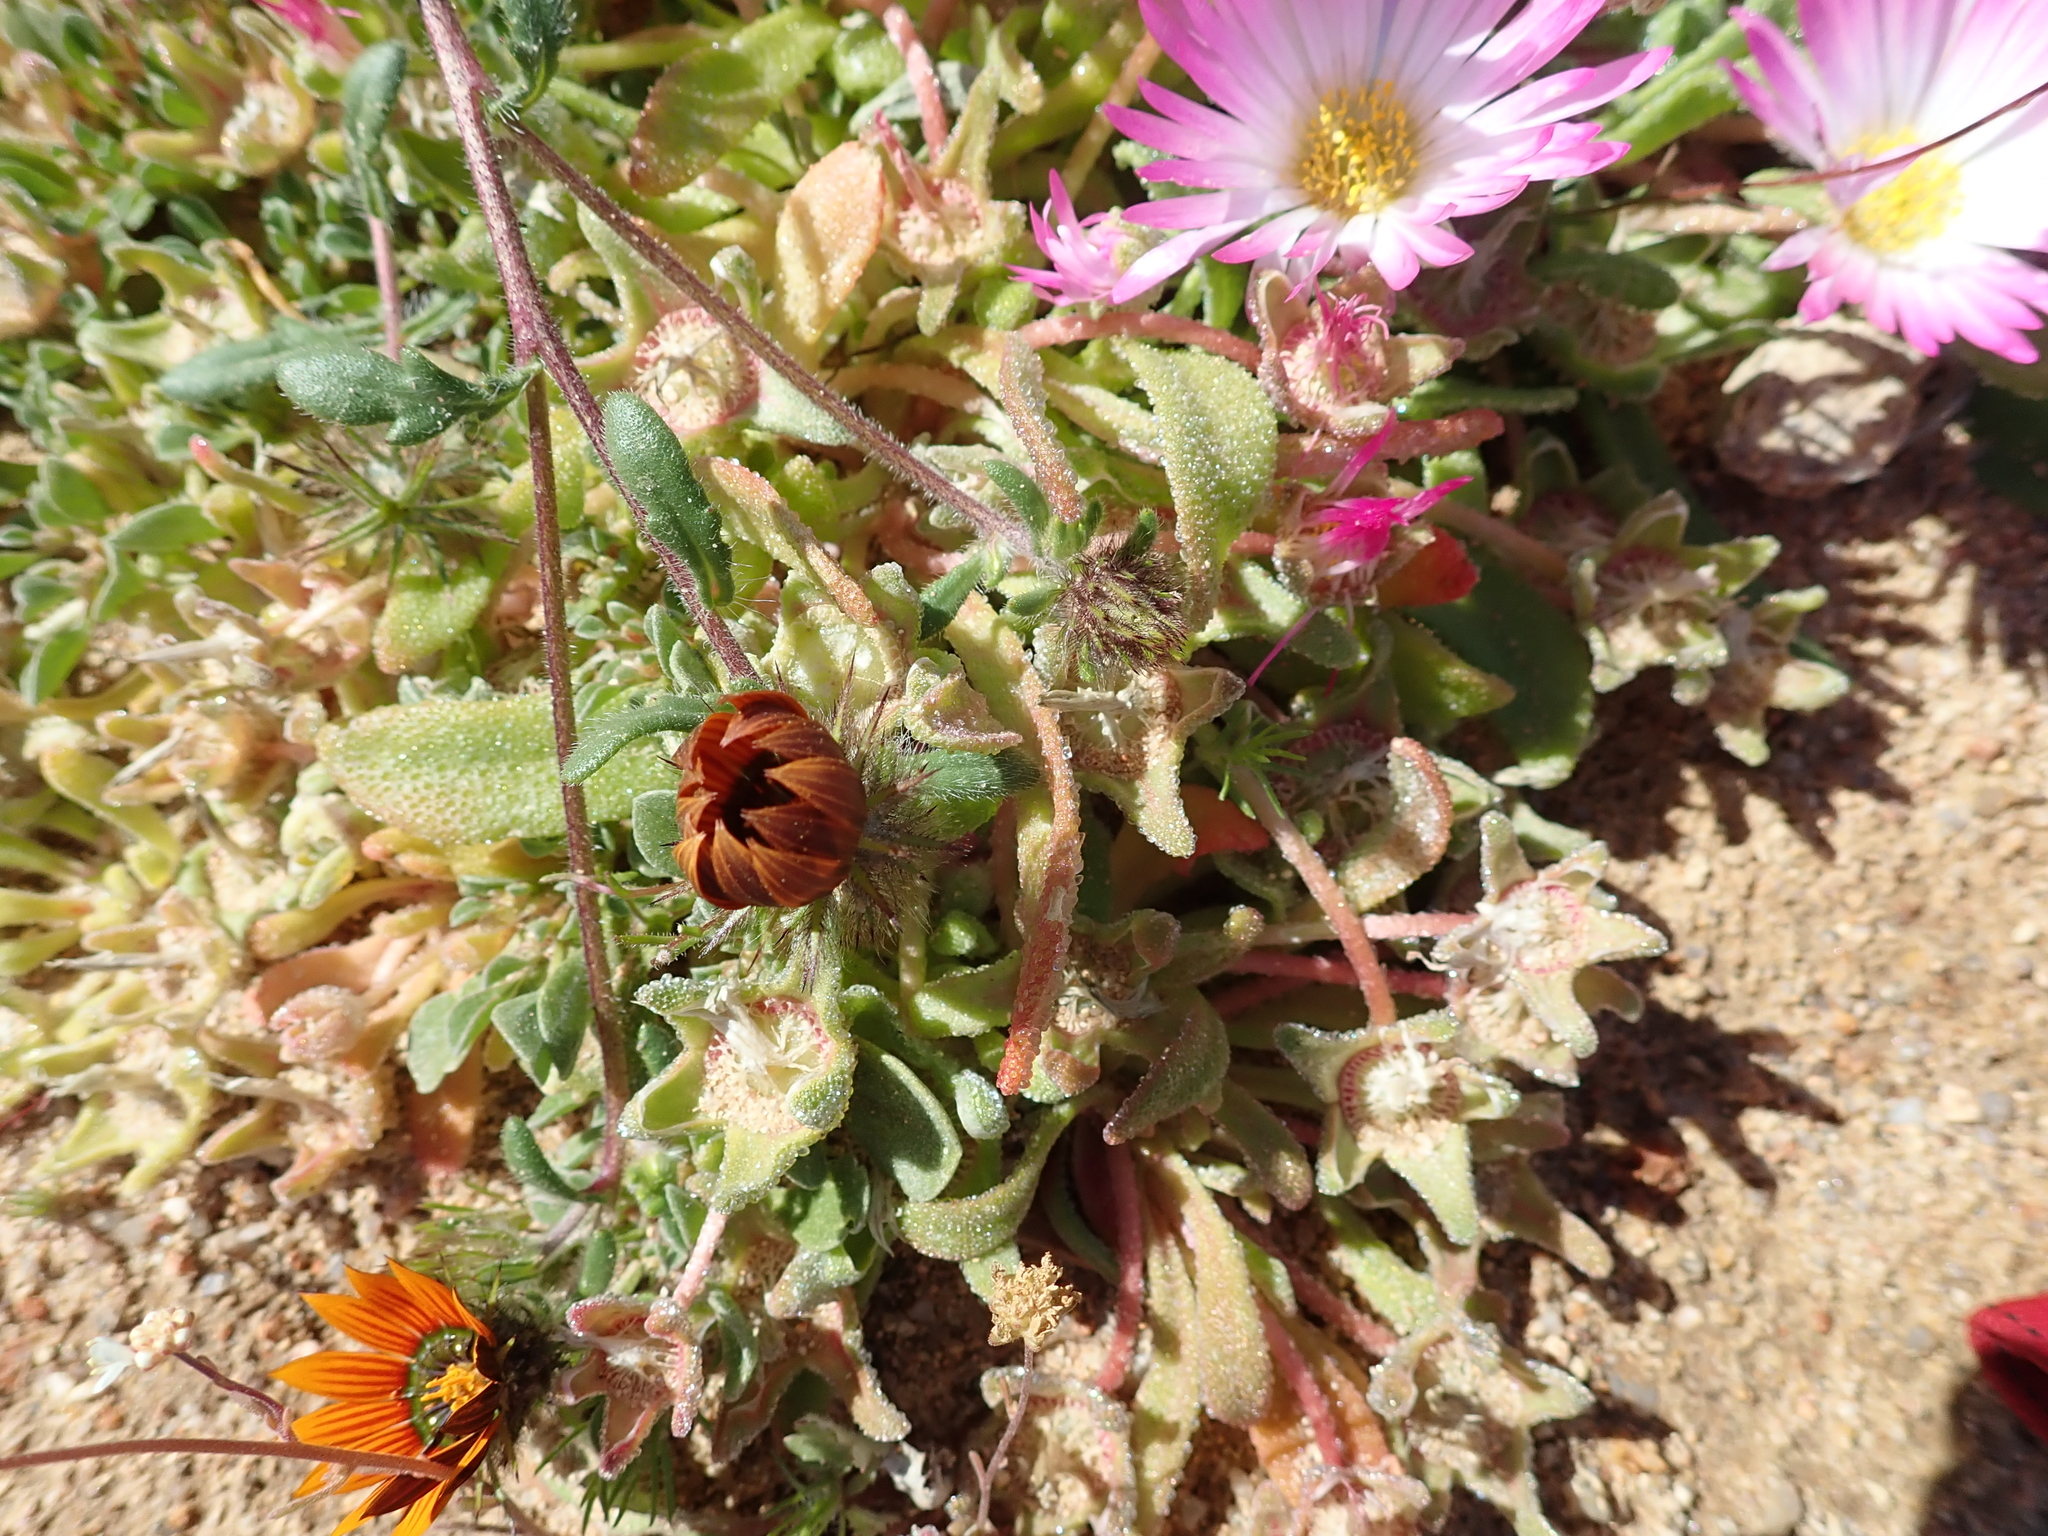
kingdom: Plantae
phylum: Tracheophyta
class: Magnoliopsida
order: Caryophyllales
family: Aizoaceae
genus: Cleretum
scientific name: Cleretum hestermalense
